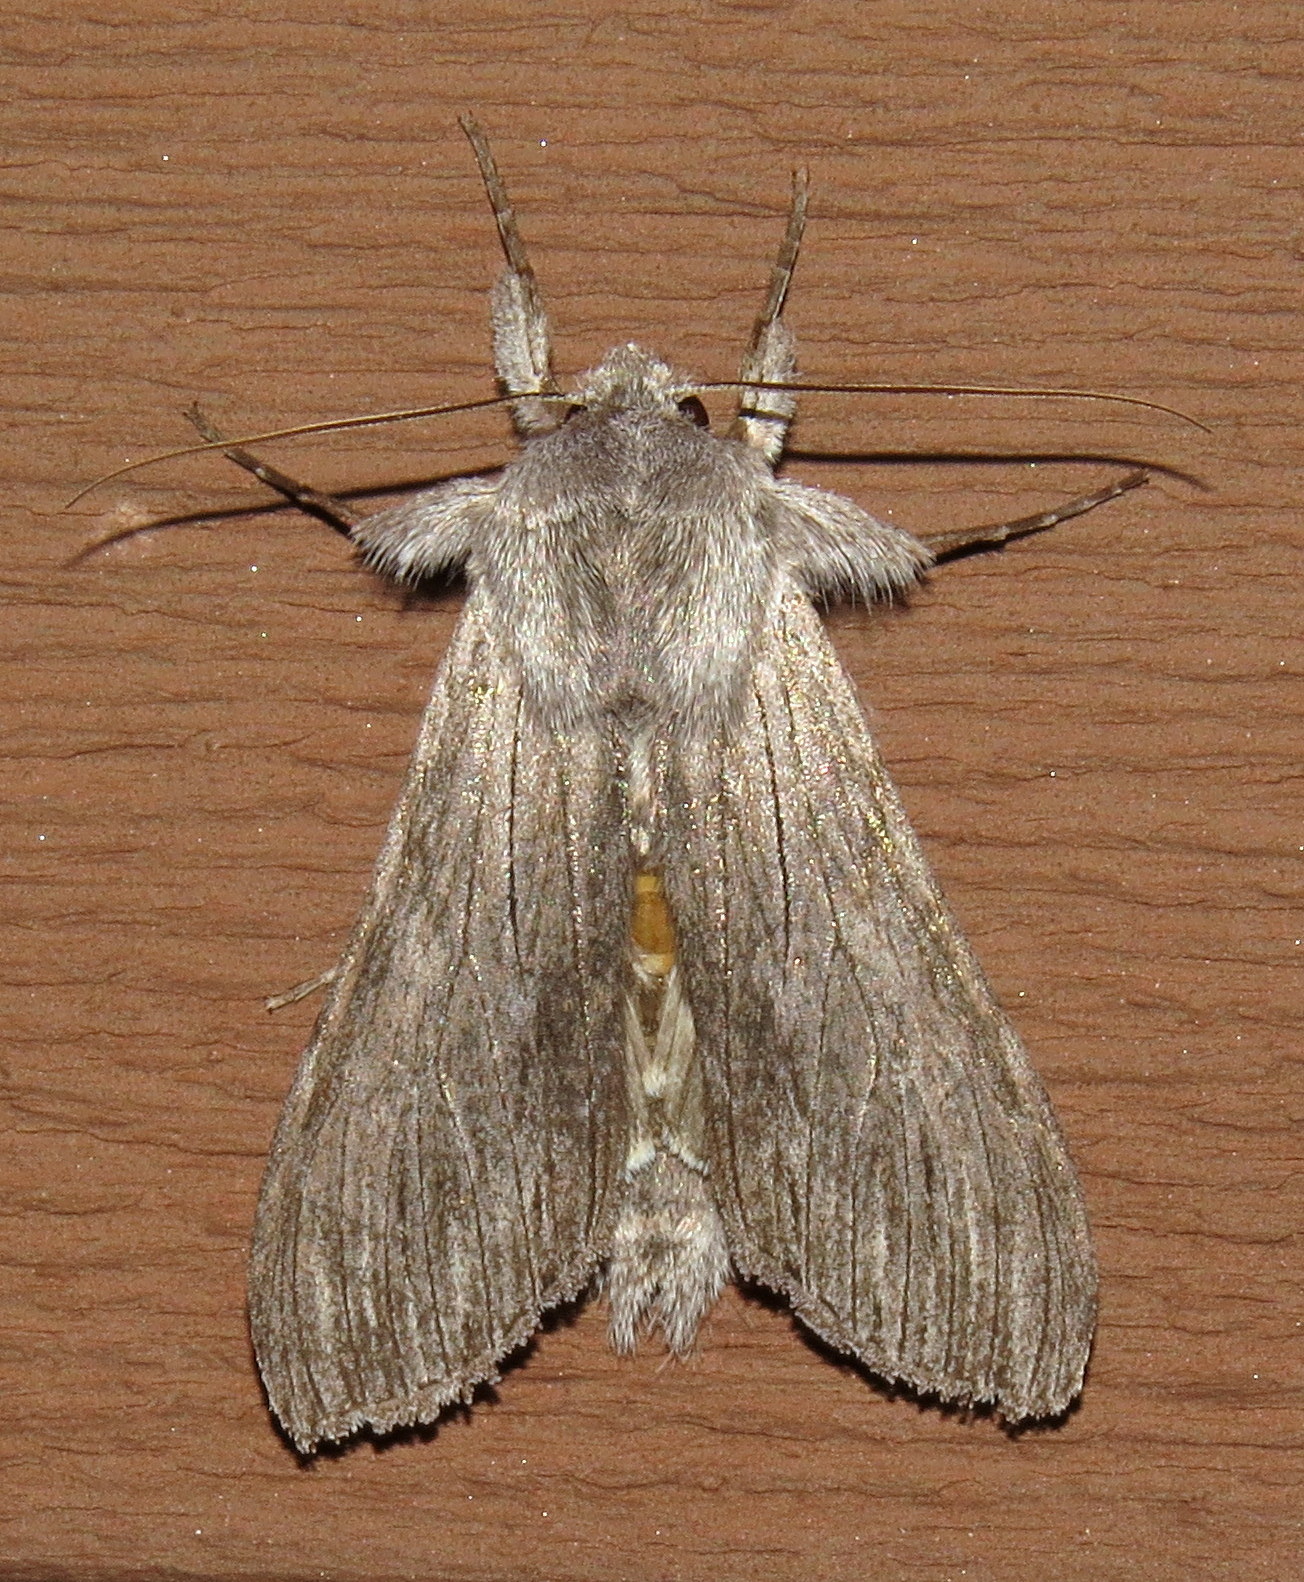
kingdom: Animalia
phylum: Arthropoda
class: Insecta
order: Lepidoptera
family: Noctuidae
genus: Cucullia
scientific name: Cucullia intermedia
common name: Goldenrod cutworm
